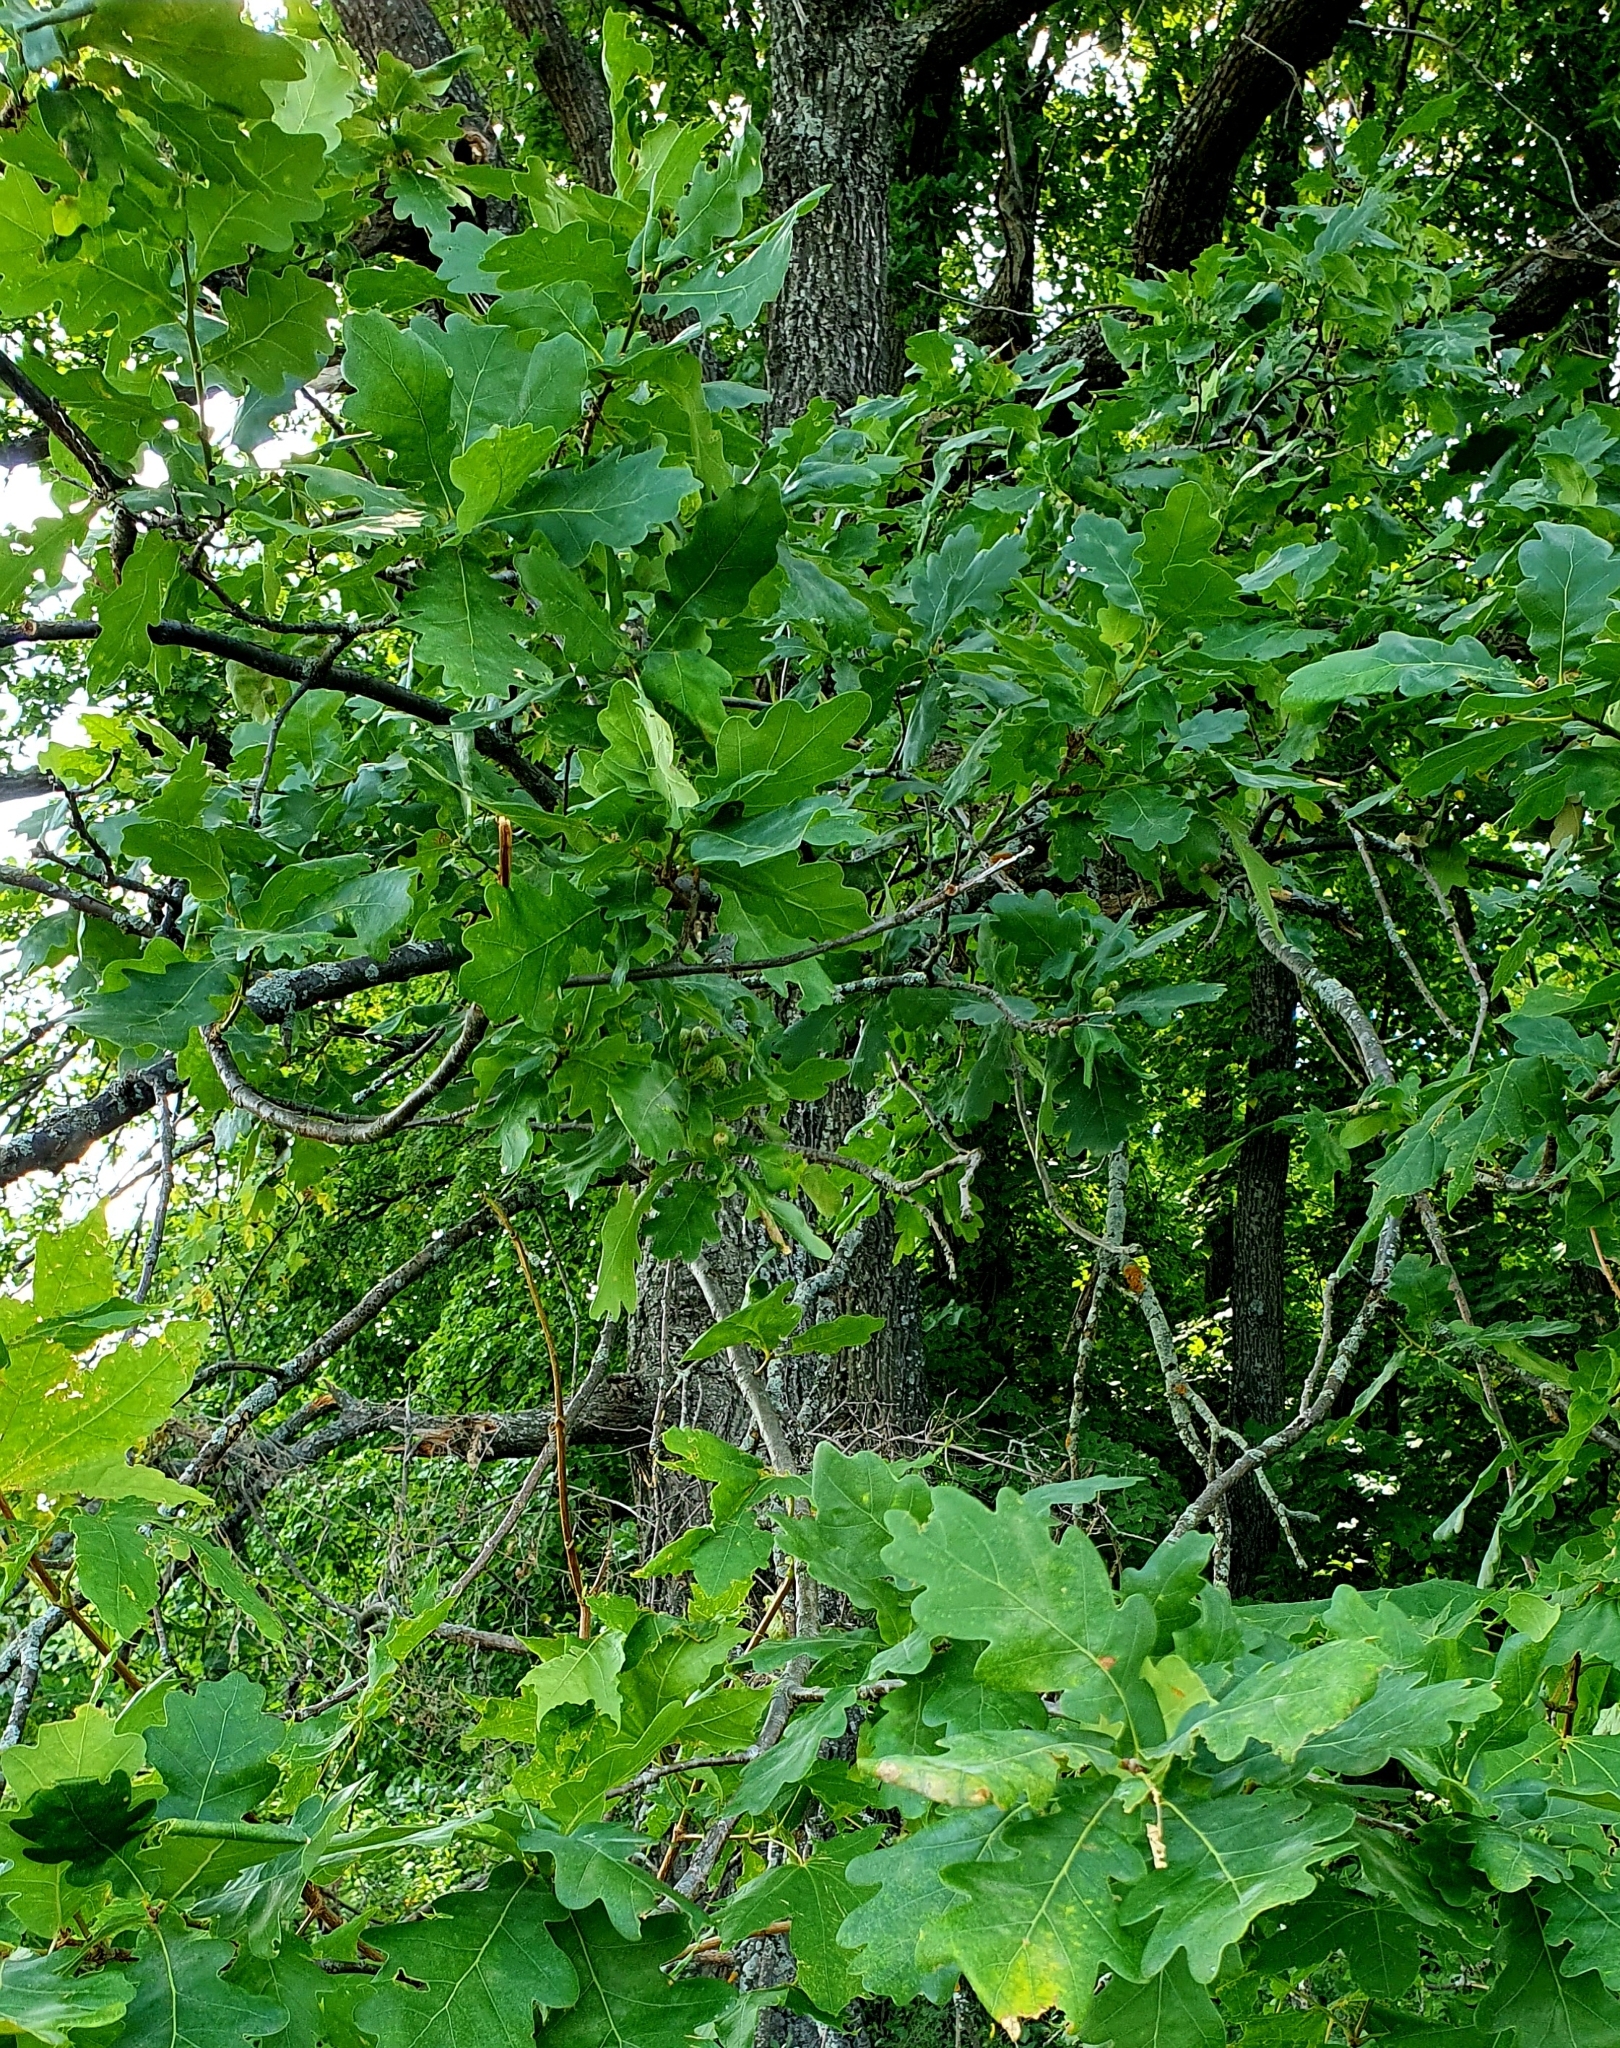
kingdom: Plantae
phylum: Tracheophyta
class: Magnoliopsida
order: Fagales
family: Fagaceae
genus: Quercus
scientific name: Quercus robur
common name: Pedunculate oak
